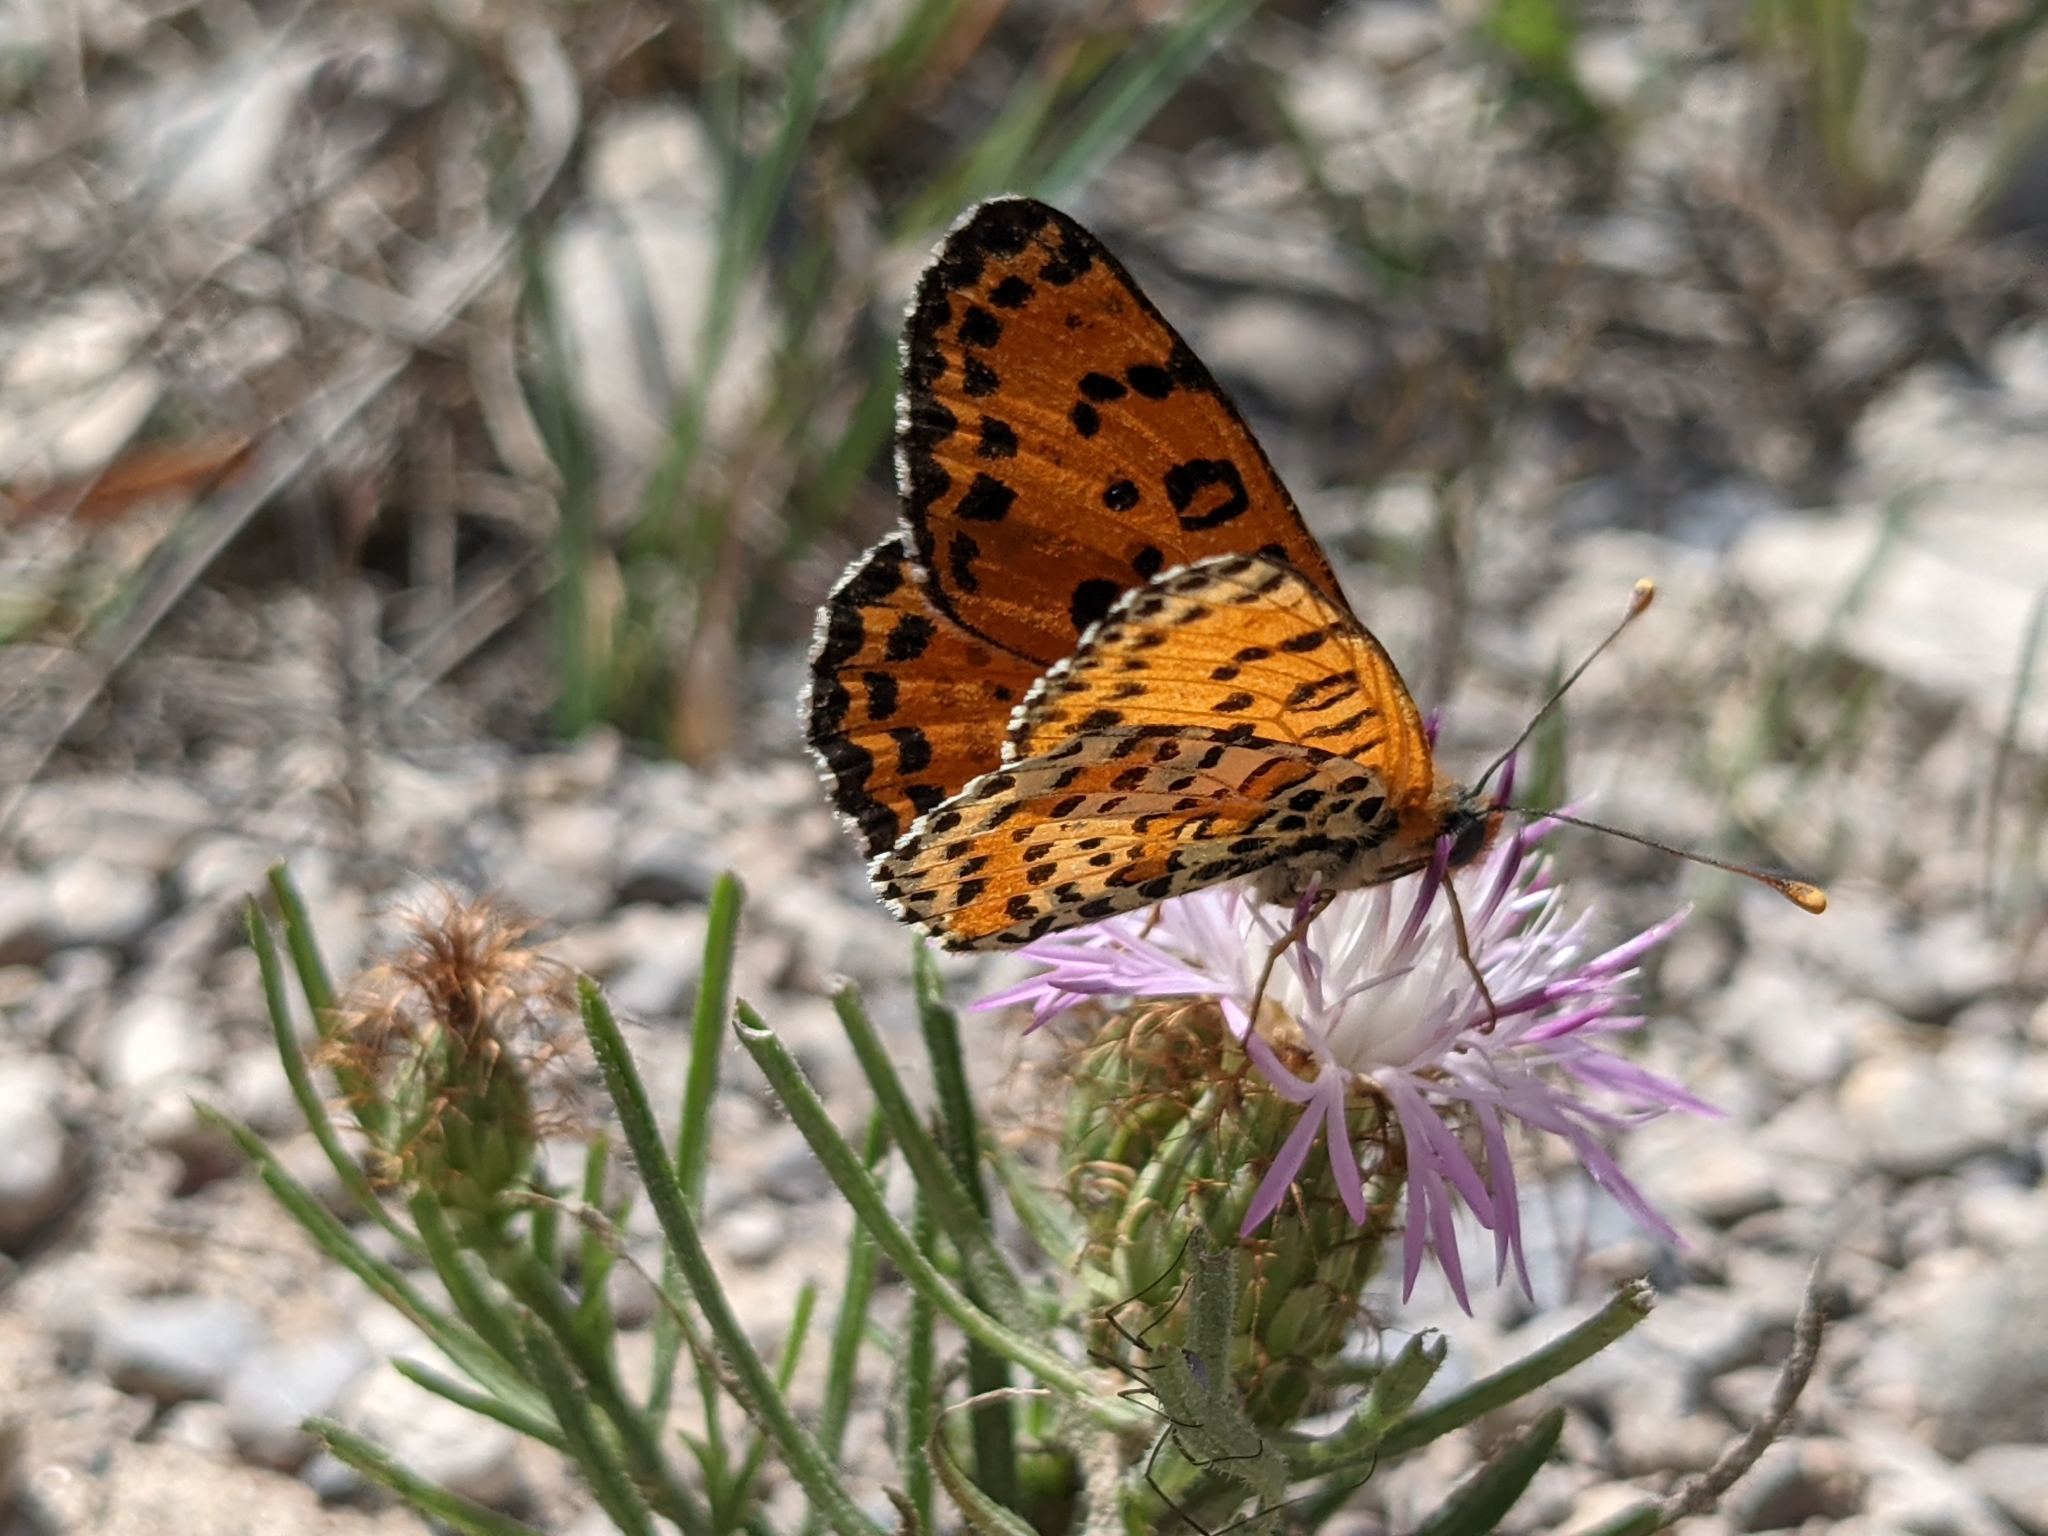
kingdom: Animalia
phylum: Arthropoda
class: Insecta
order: Lepidoptera
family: Nymphalidae
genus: Melitaea
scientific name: Melitaea didyma
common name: Spotted fritillary
